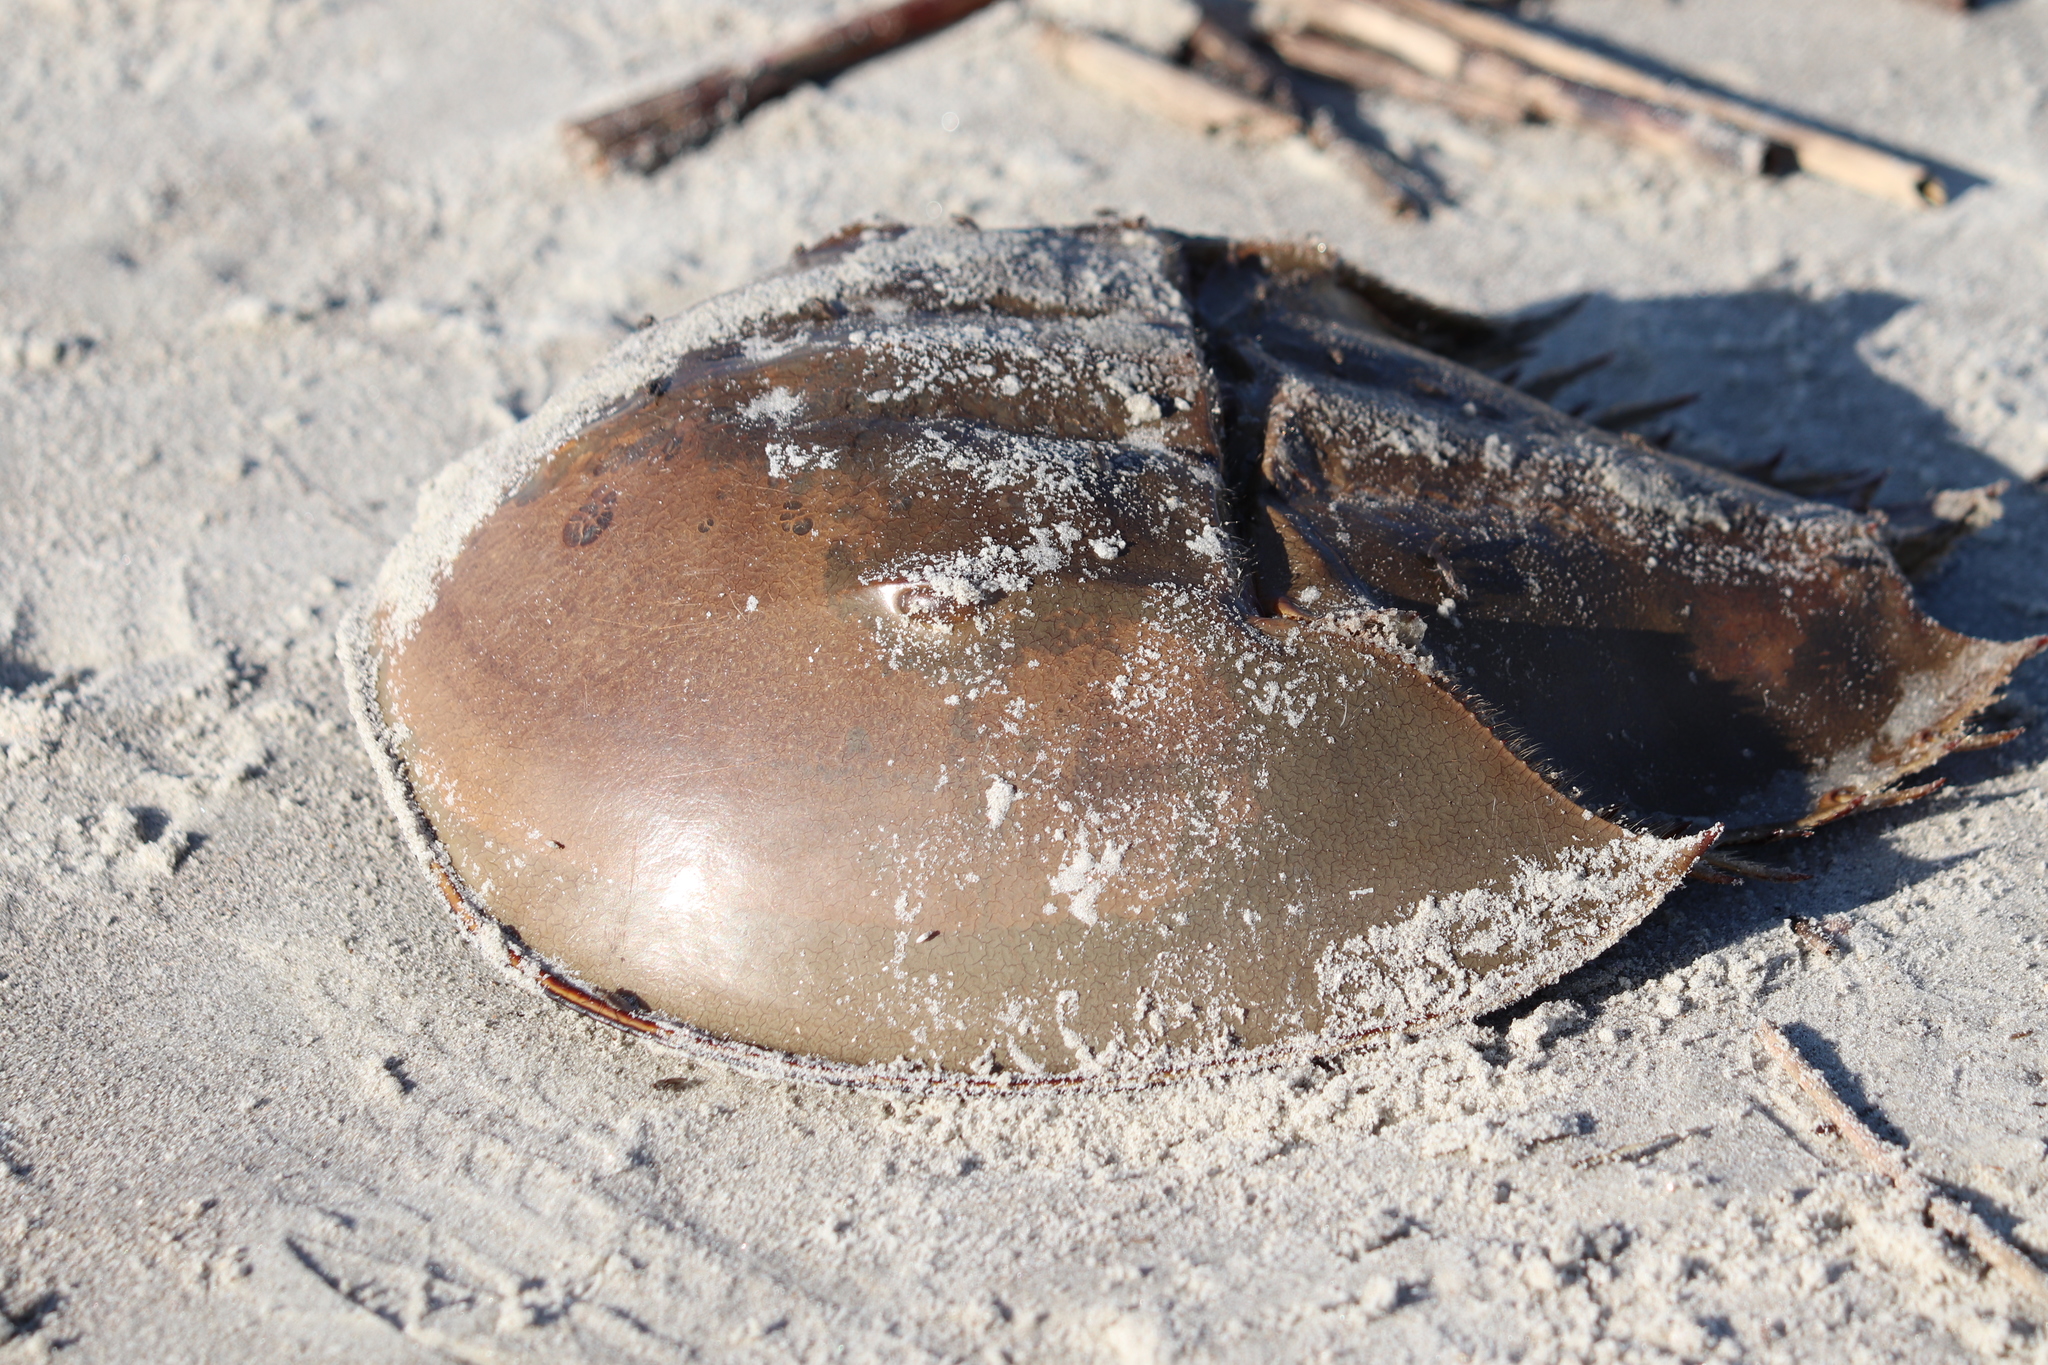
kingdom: Animalia
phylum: Arthropoda
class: Merostomata
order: Xiphosurida
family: Limulidae
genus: Limulus
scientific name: Limulus polyphemus
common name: Horseshoe crab
